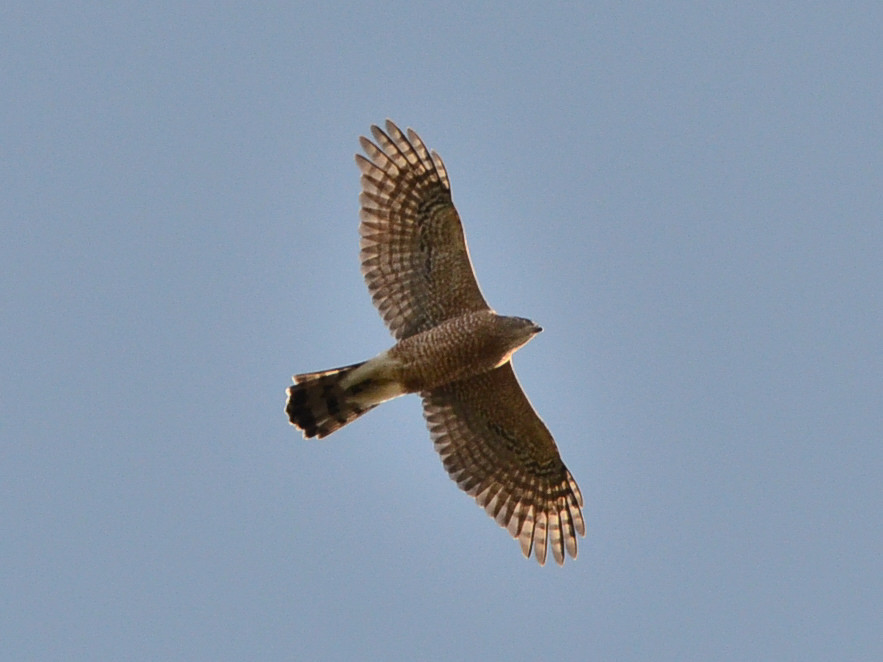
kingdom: Animalia
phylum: Chordata
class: Aves
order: Accipitriformes
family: Accipitridae
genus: Accipiter
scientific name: Accipiter cooperii
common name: Cooper's hawk
